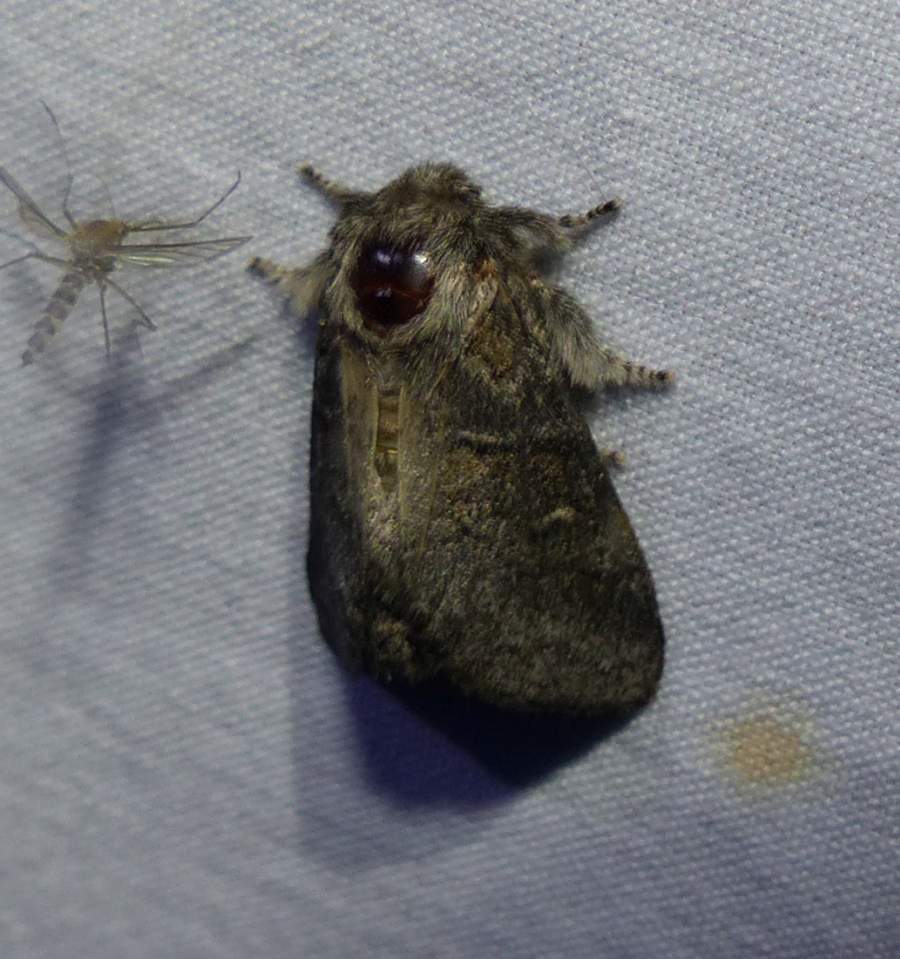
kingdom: Animalia
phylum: Arthropoda
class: Insecta
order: Lepidoptera
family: Notodontidae
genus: Gluphisia
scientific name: Gluphisia septentrionis
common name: Common gluphisia
